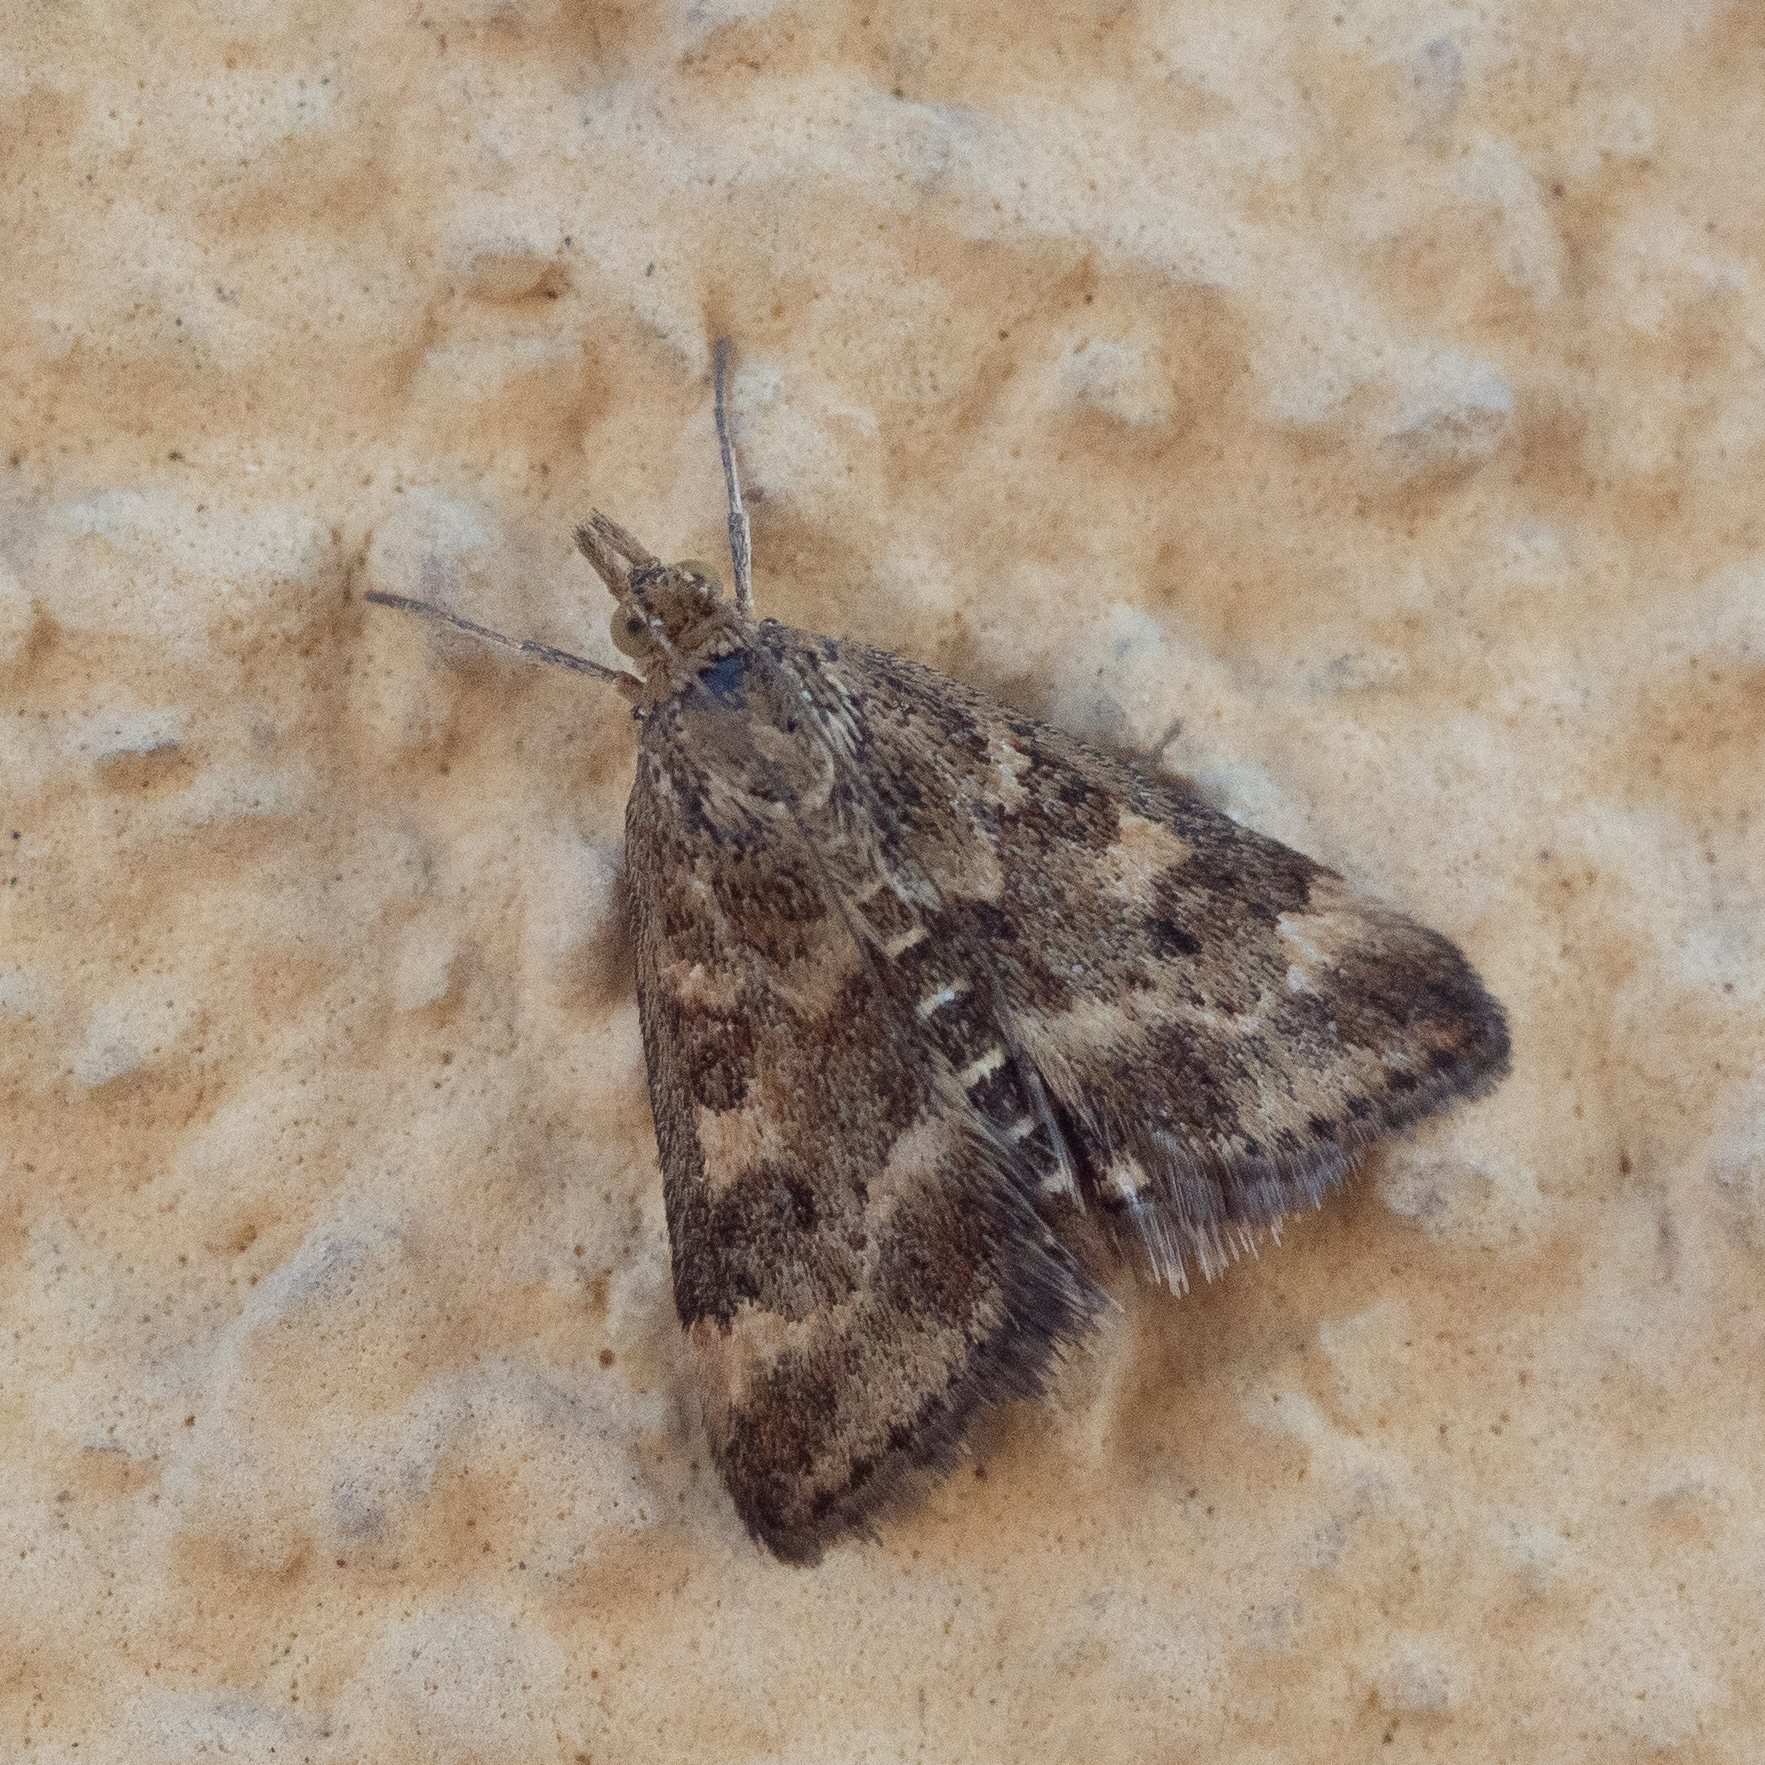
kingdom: Animalia
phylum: Arthropoda
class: Insecta
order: Lepidoptera
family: Crambidae
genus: Pyrausta
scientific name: Pyrausta despicata
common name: Straw-barred pearl
